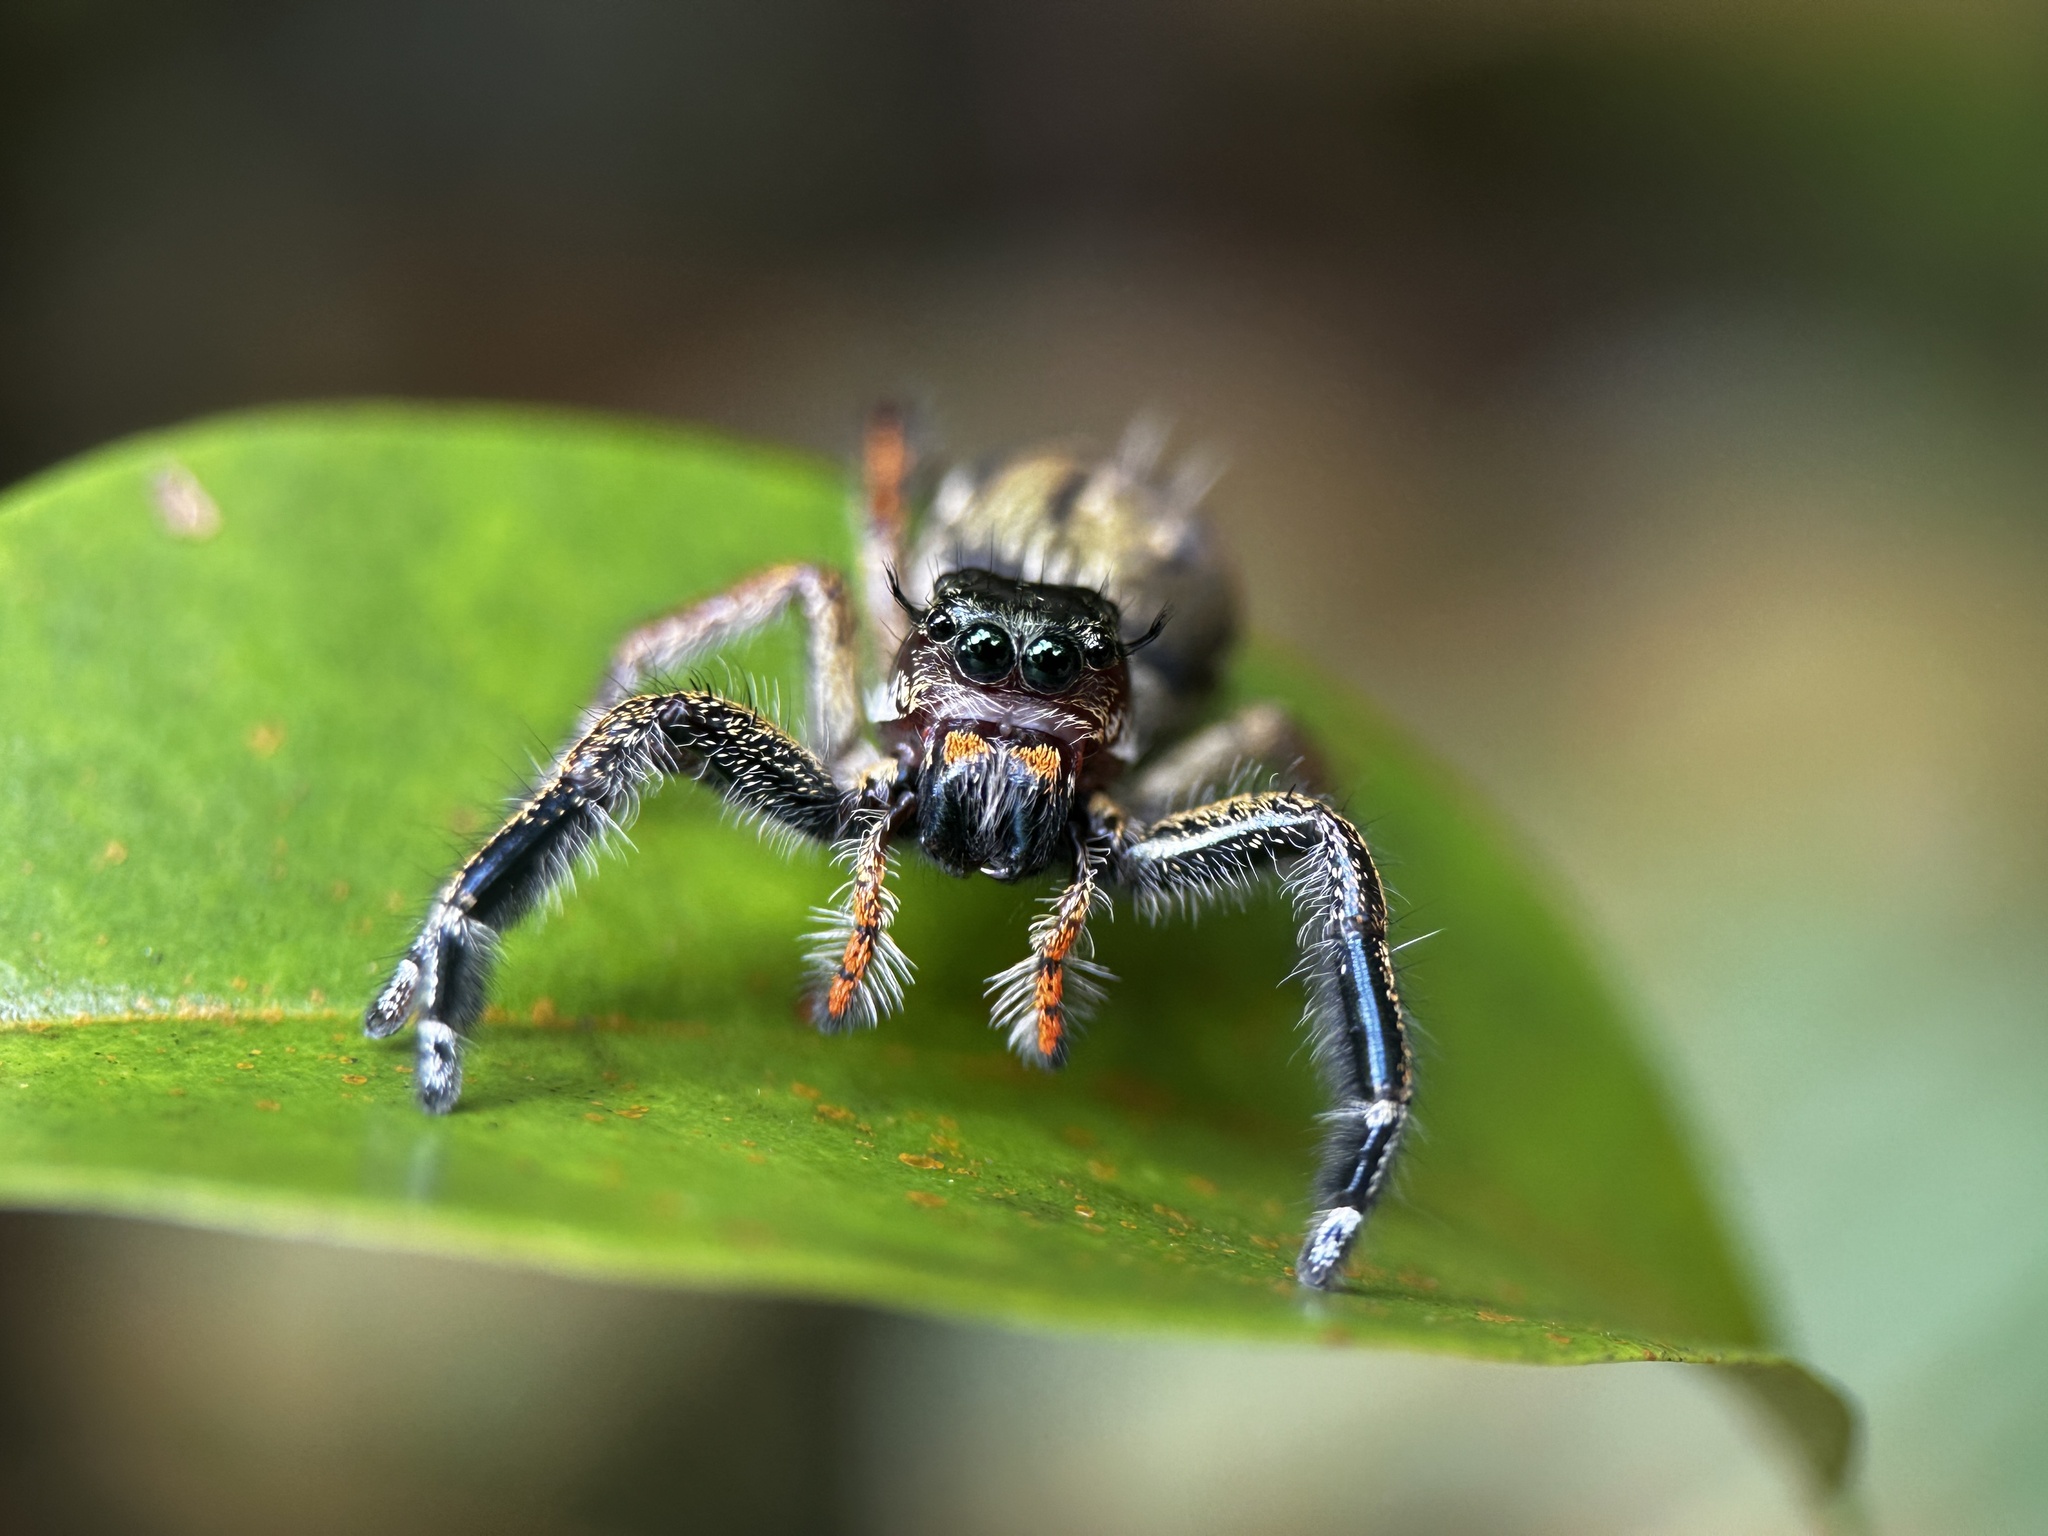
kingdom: Animalia
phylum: Arthropoda
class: Arachnida
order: Araneae
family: Salticidae
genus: Hyllus
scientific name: Hyllus keratodes
